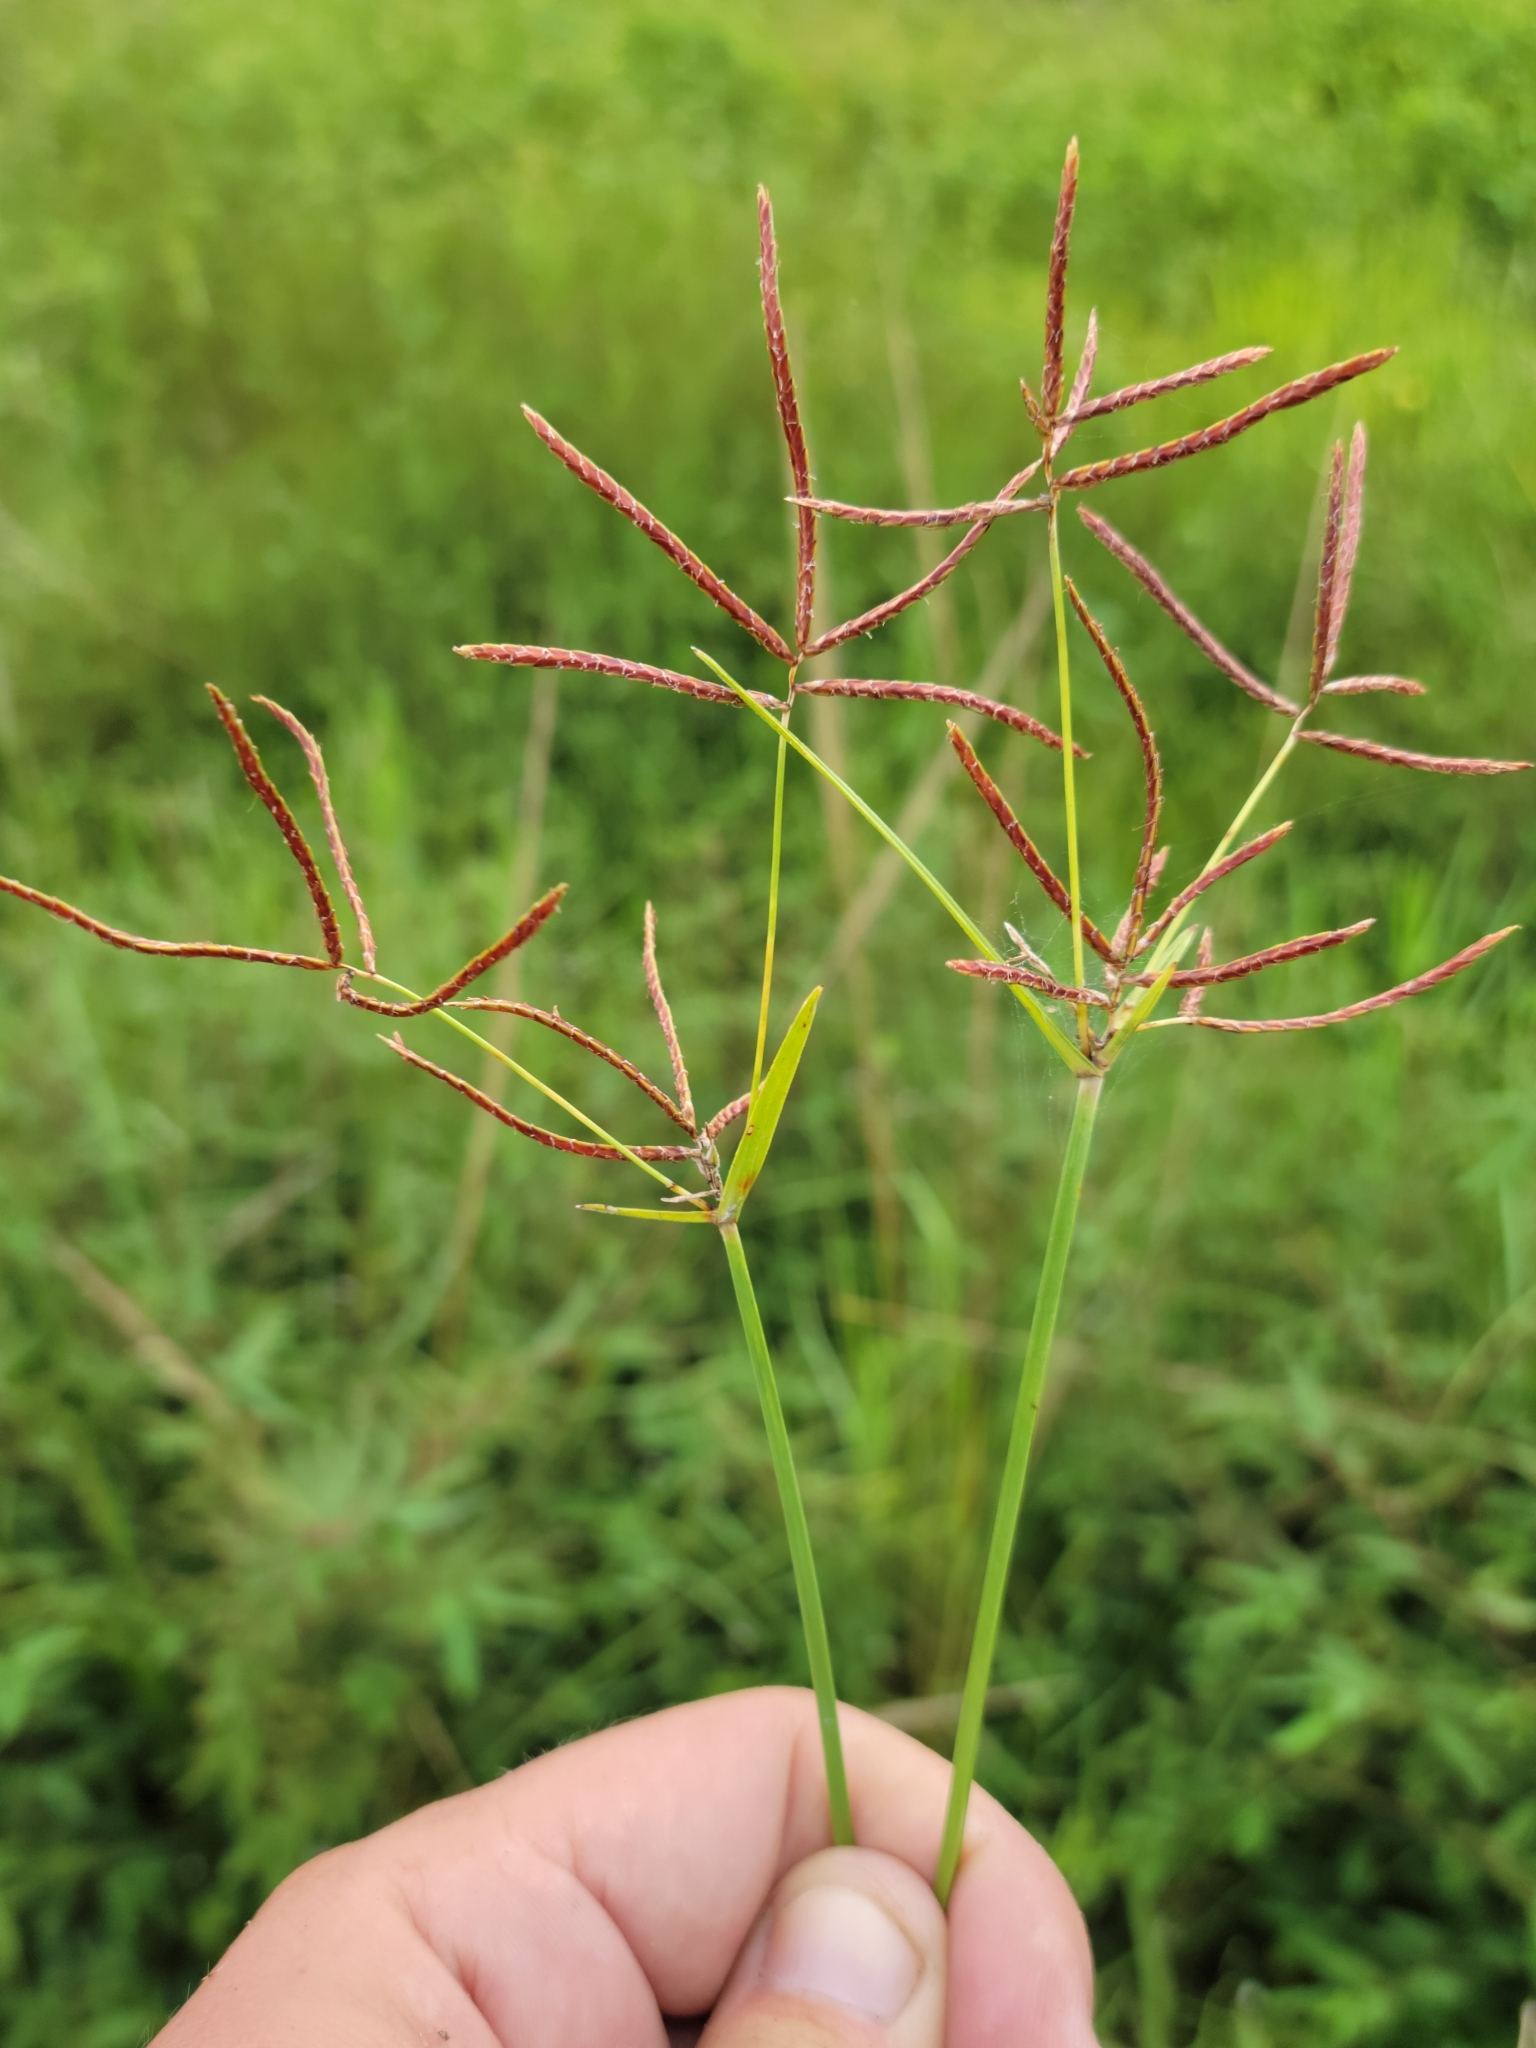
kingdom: Plantae
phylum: Tracheophyta
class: Liliopsida
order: Poales
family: Cyperaceae
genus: Cyperus
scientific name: Cyperus rotundus
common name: Nutgrass
